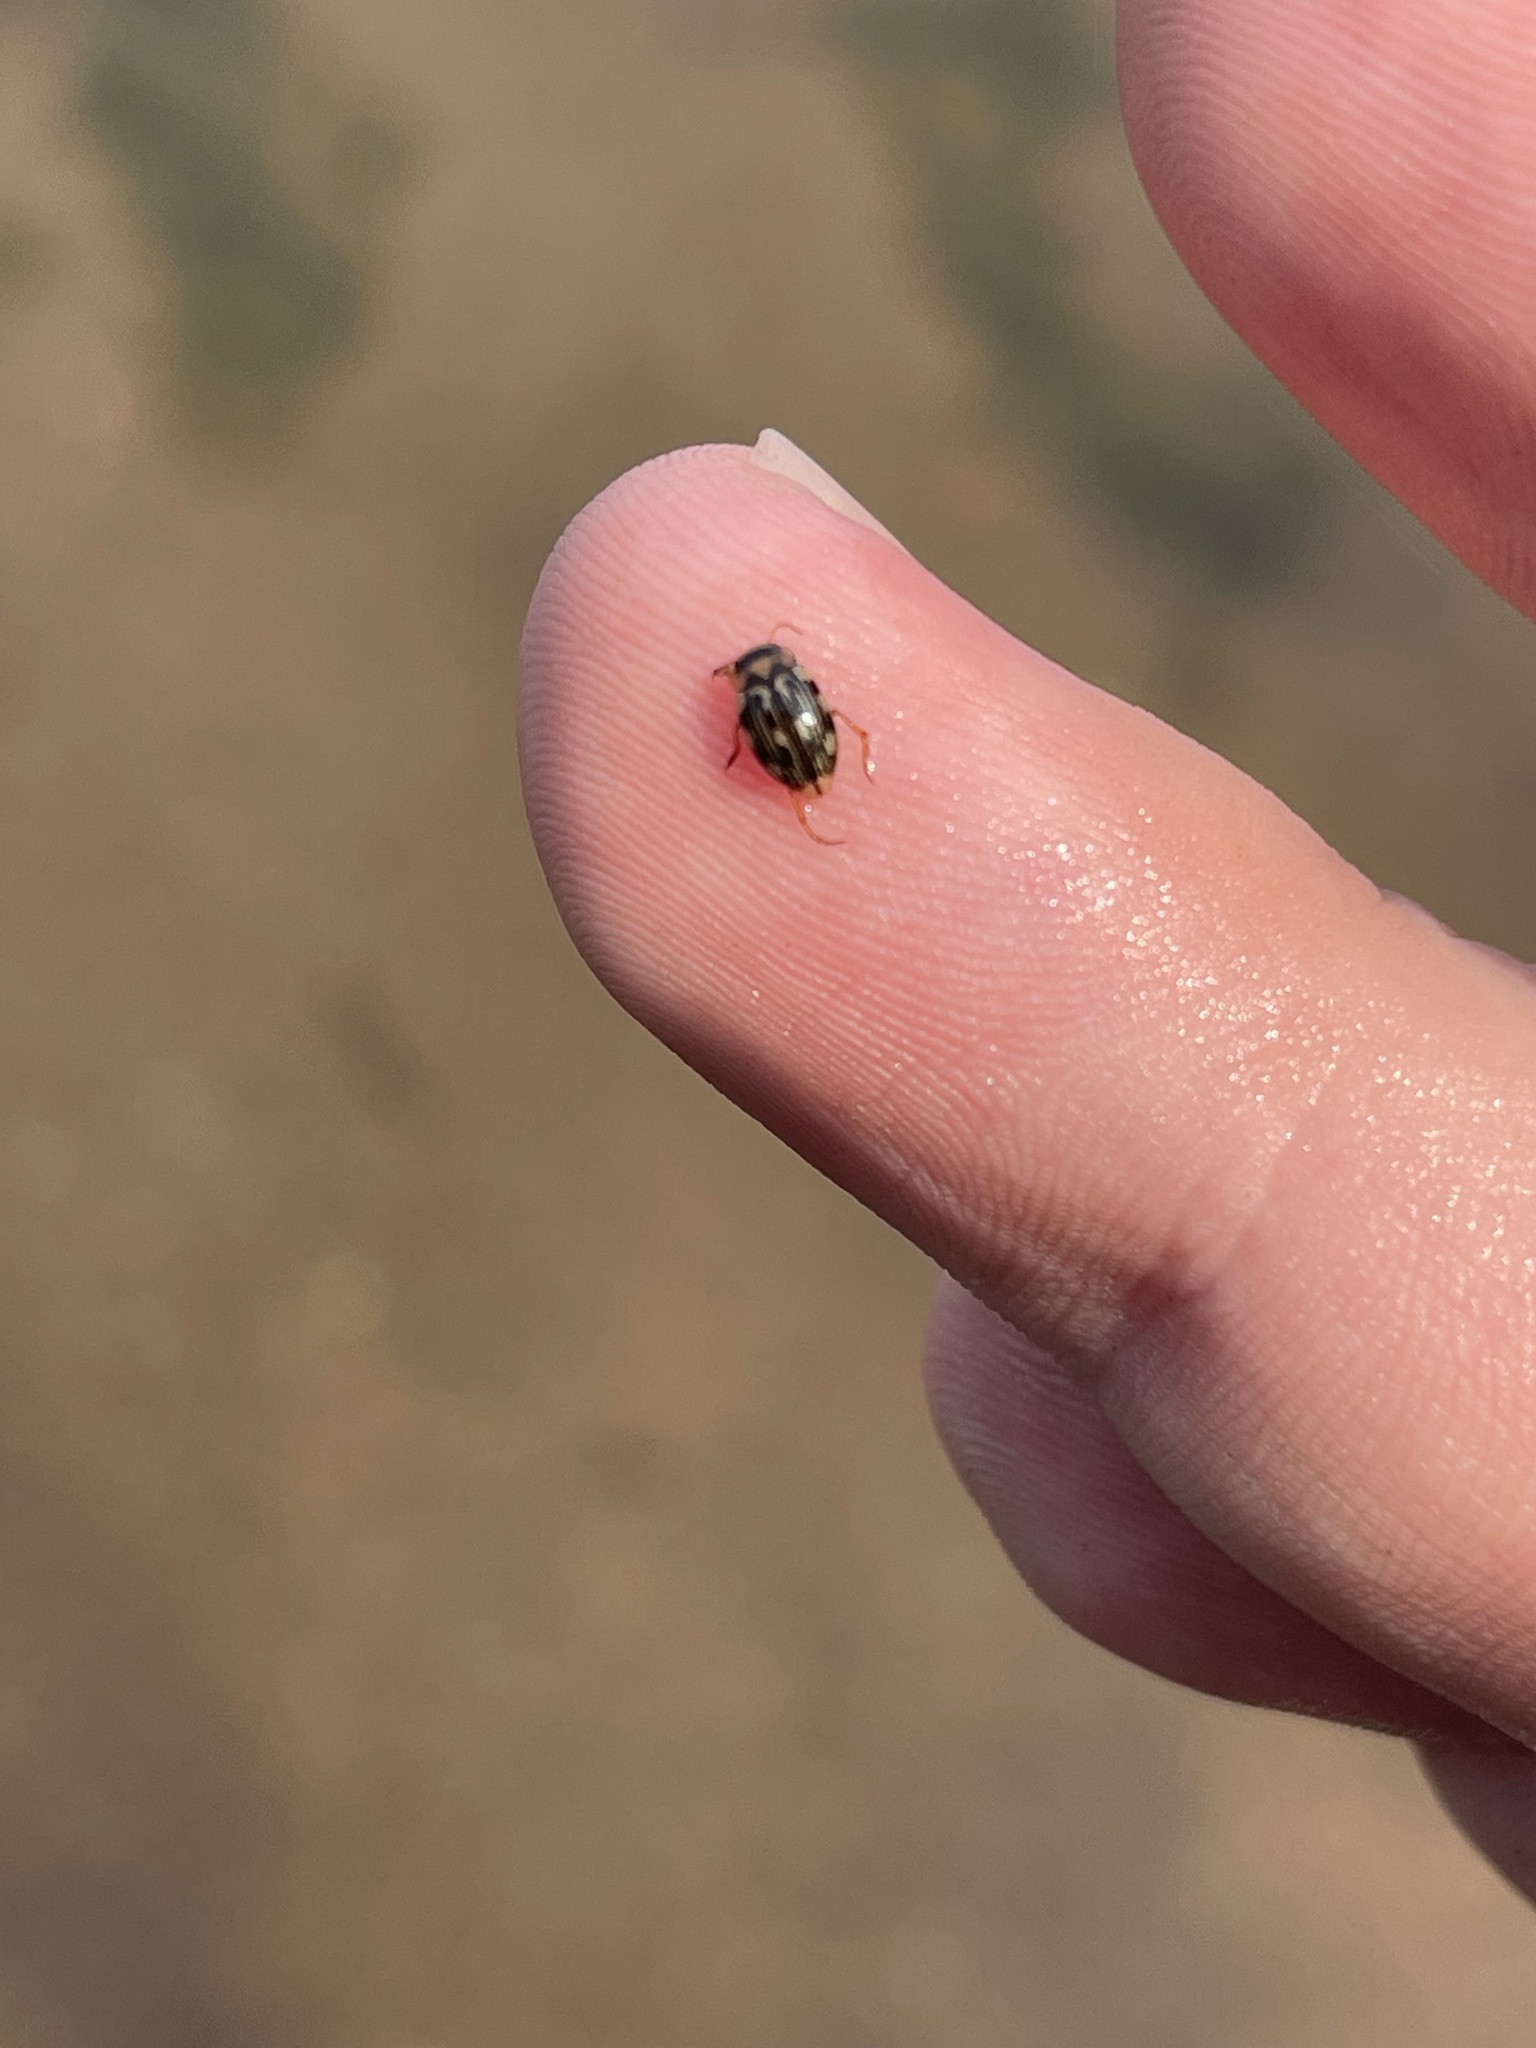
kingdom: Animalia
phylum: Arthropoda
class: Insecta
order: Coleoptera
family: Dytiscidae
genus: Nebrioporus
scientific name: Nebrioporus macronychus
